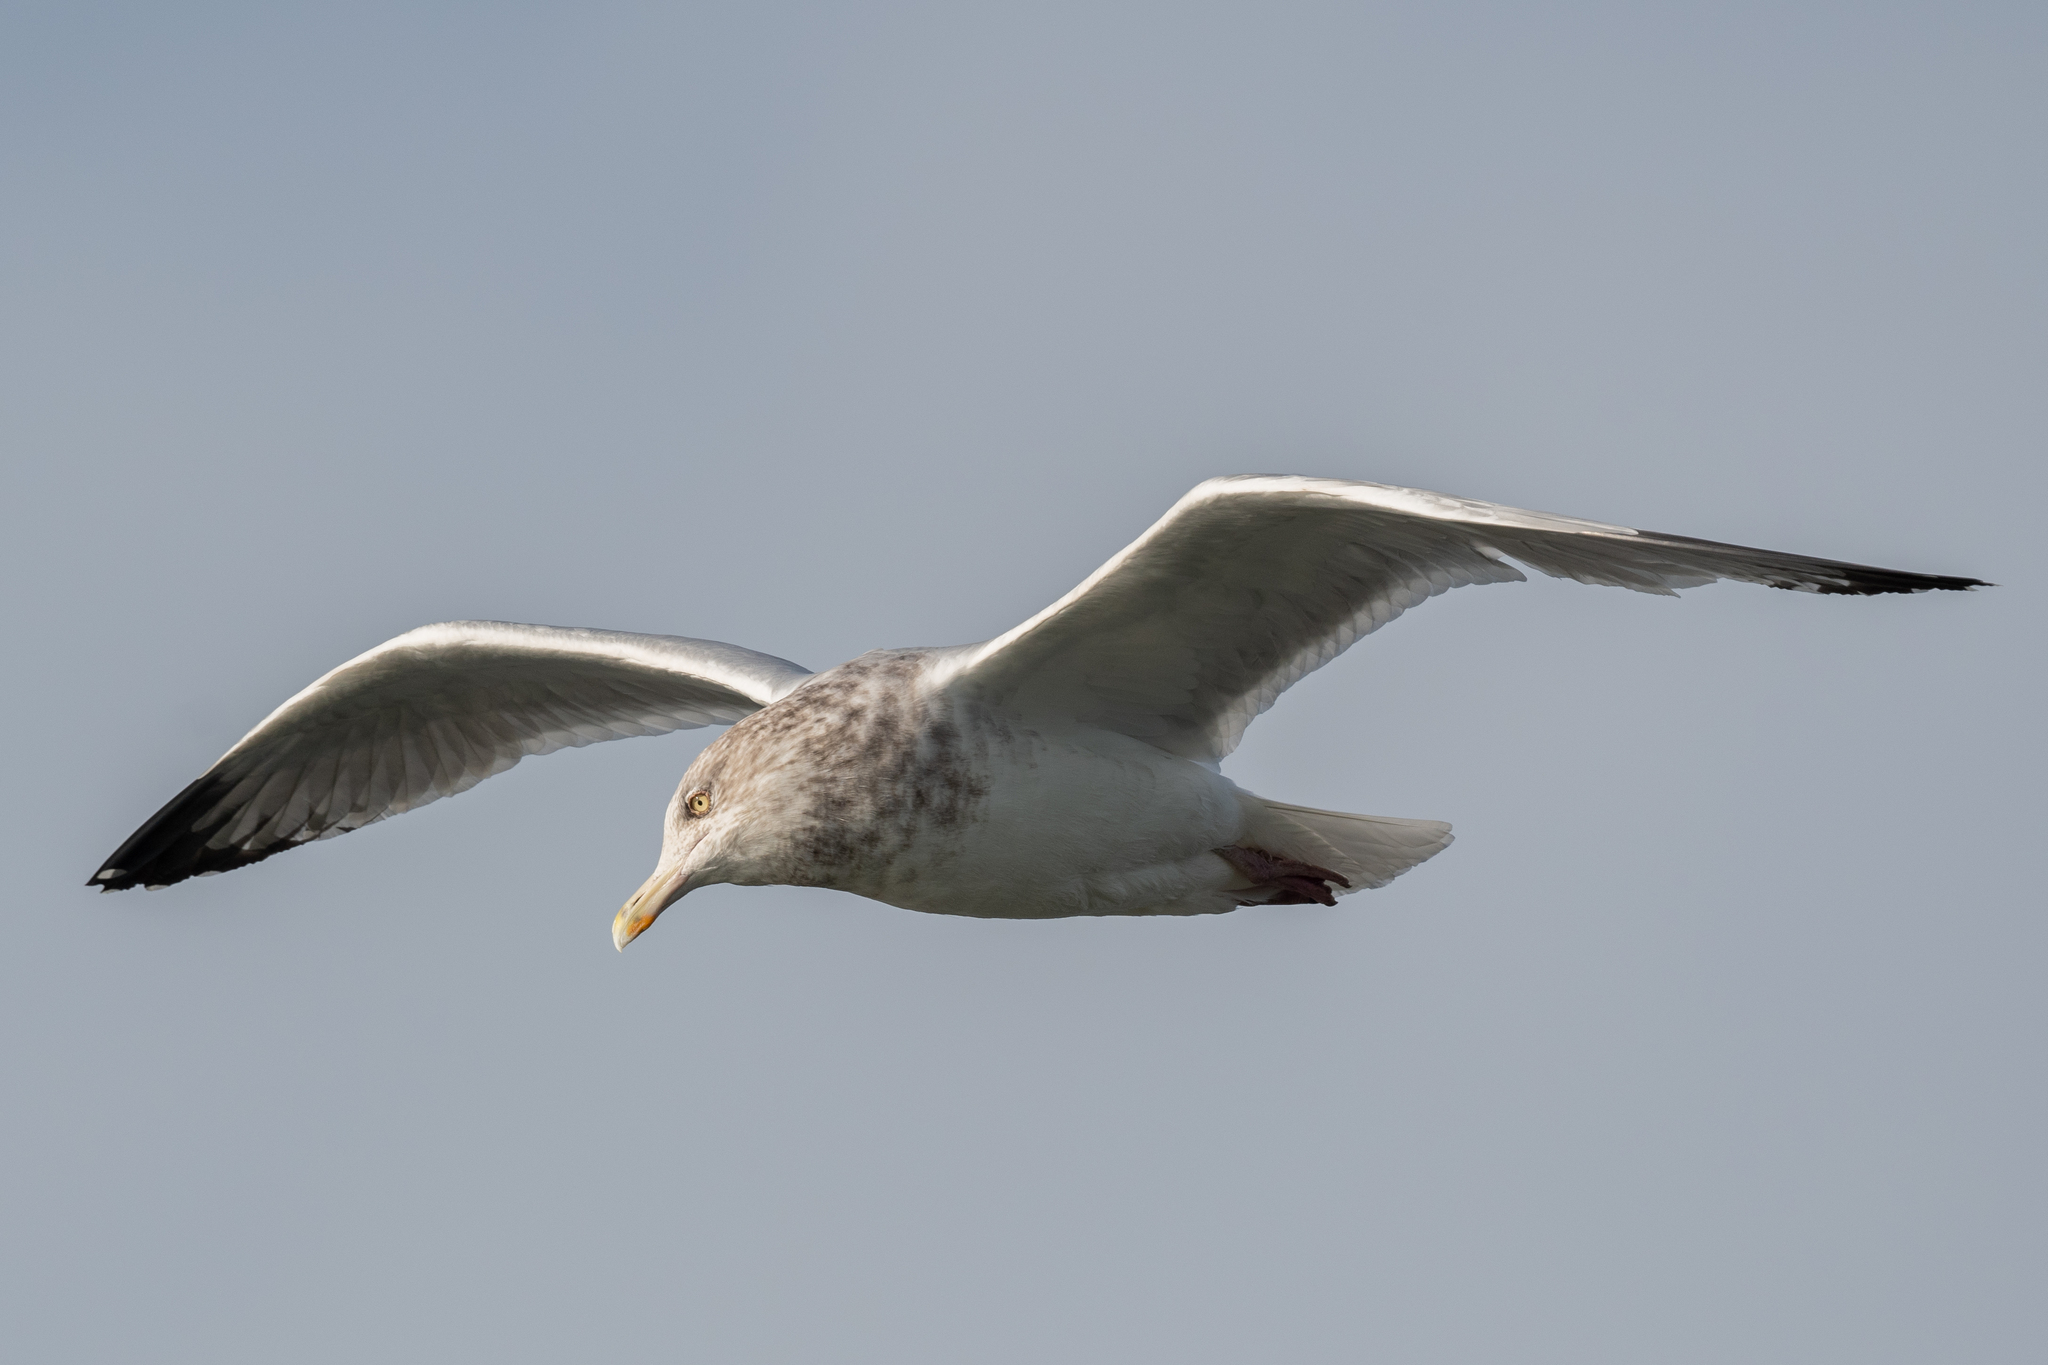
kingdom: Animalia
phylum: Chordata
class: Aves
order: Charadriiformes
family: Laridae
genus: Larus
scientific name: Larus argentatus
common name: Herring gull
